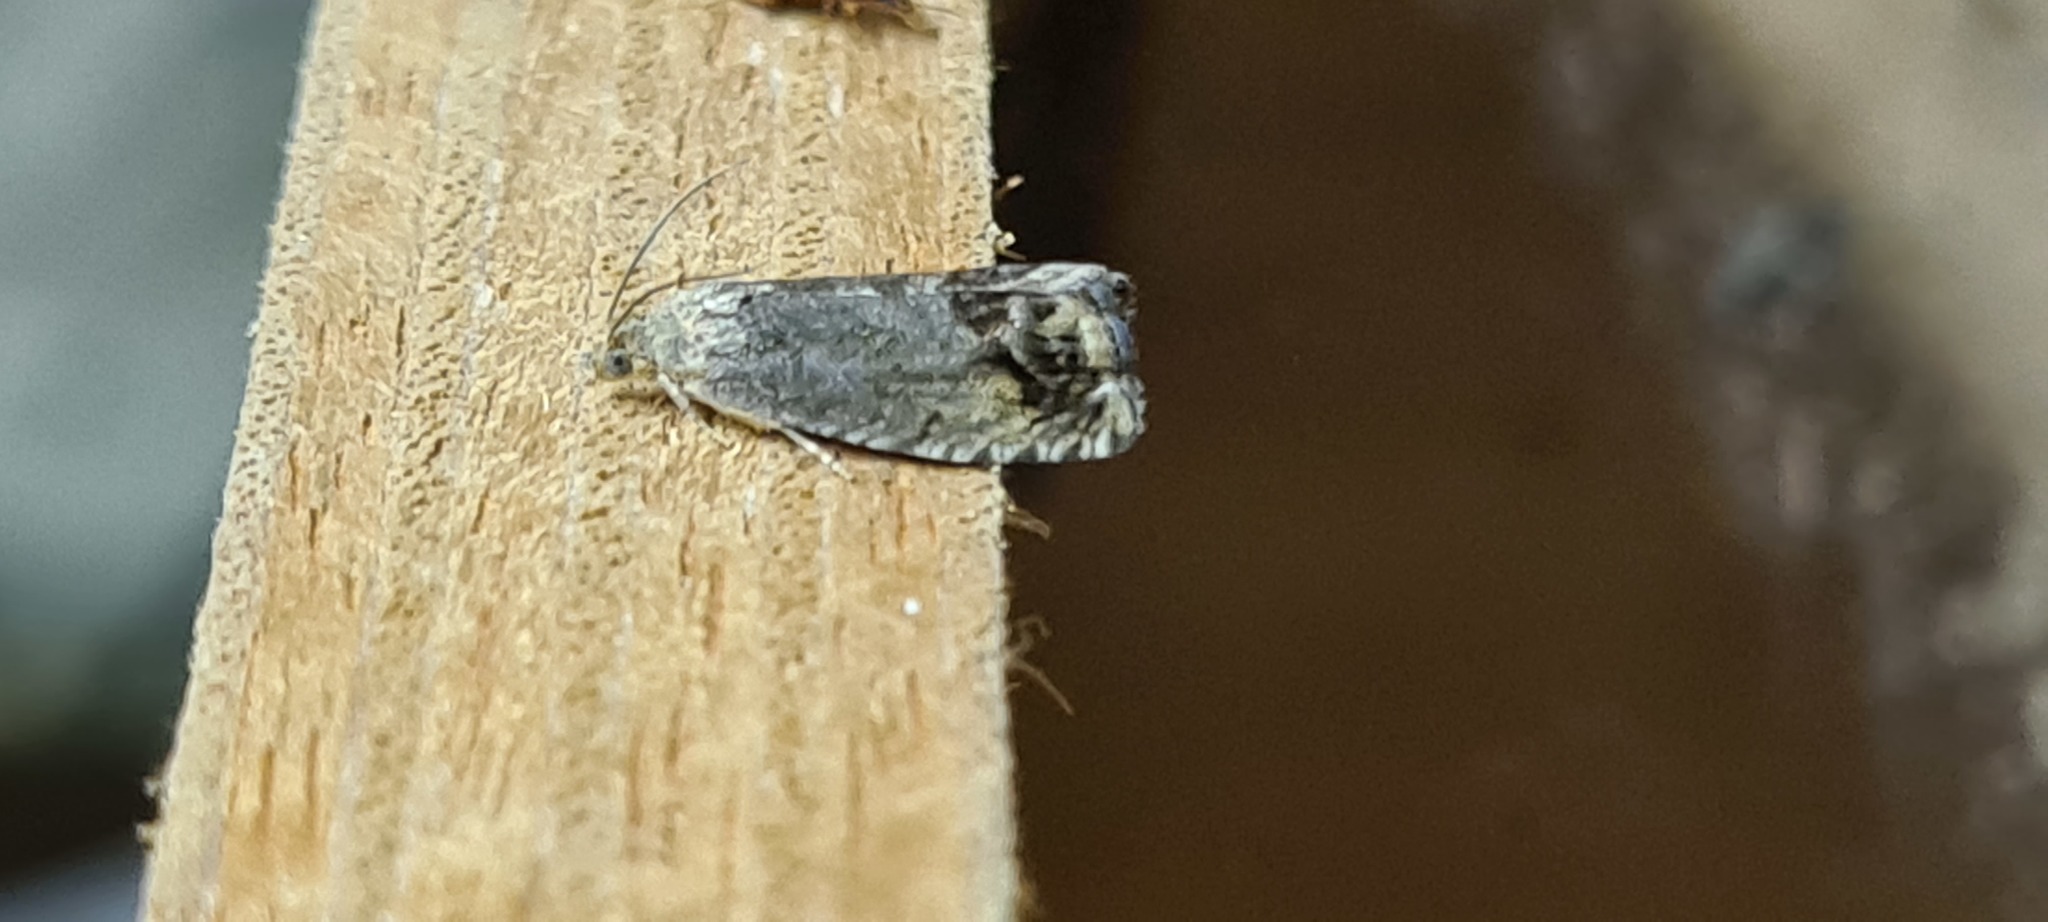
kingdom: Animalia
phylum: Arthropoda
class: Insecta
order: Lepidoptera
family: Tortricidae
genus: Cydia
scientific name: Cydia splendana
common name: De: kastanienwickler, eichenwickler es: oruga de la castaña fr: carpocapse des châtaignes it: cidia o tortrice tardiva delle castagne pt: bichado das castanhas gb: acorn moth, chestnut fruit tortrix
